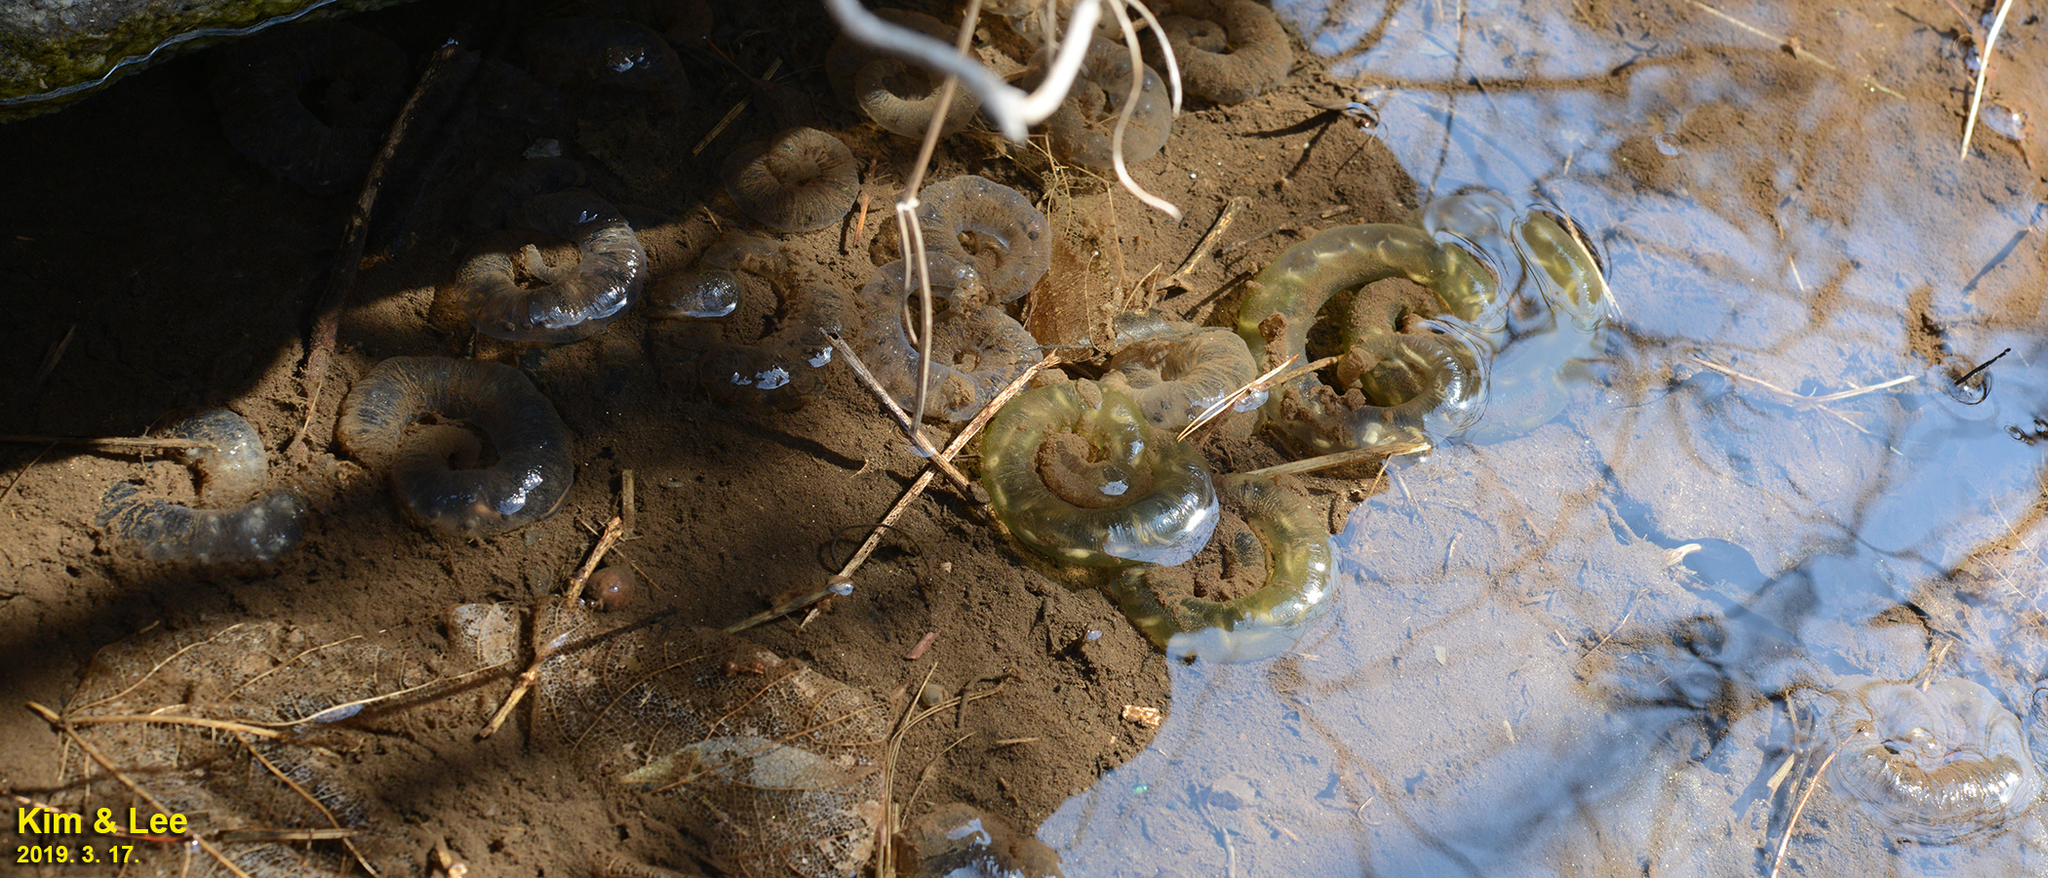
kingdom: Animalia
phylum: Chordata
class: Amphibia
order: Caudata
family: Hynobiidae
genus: Hynobius
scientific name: Hynobius leechii
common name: Gensan salamander
